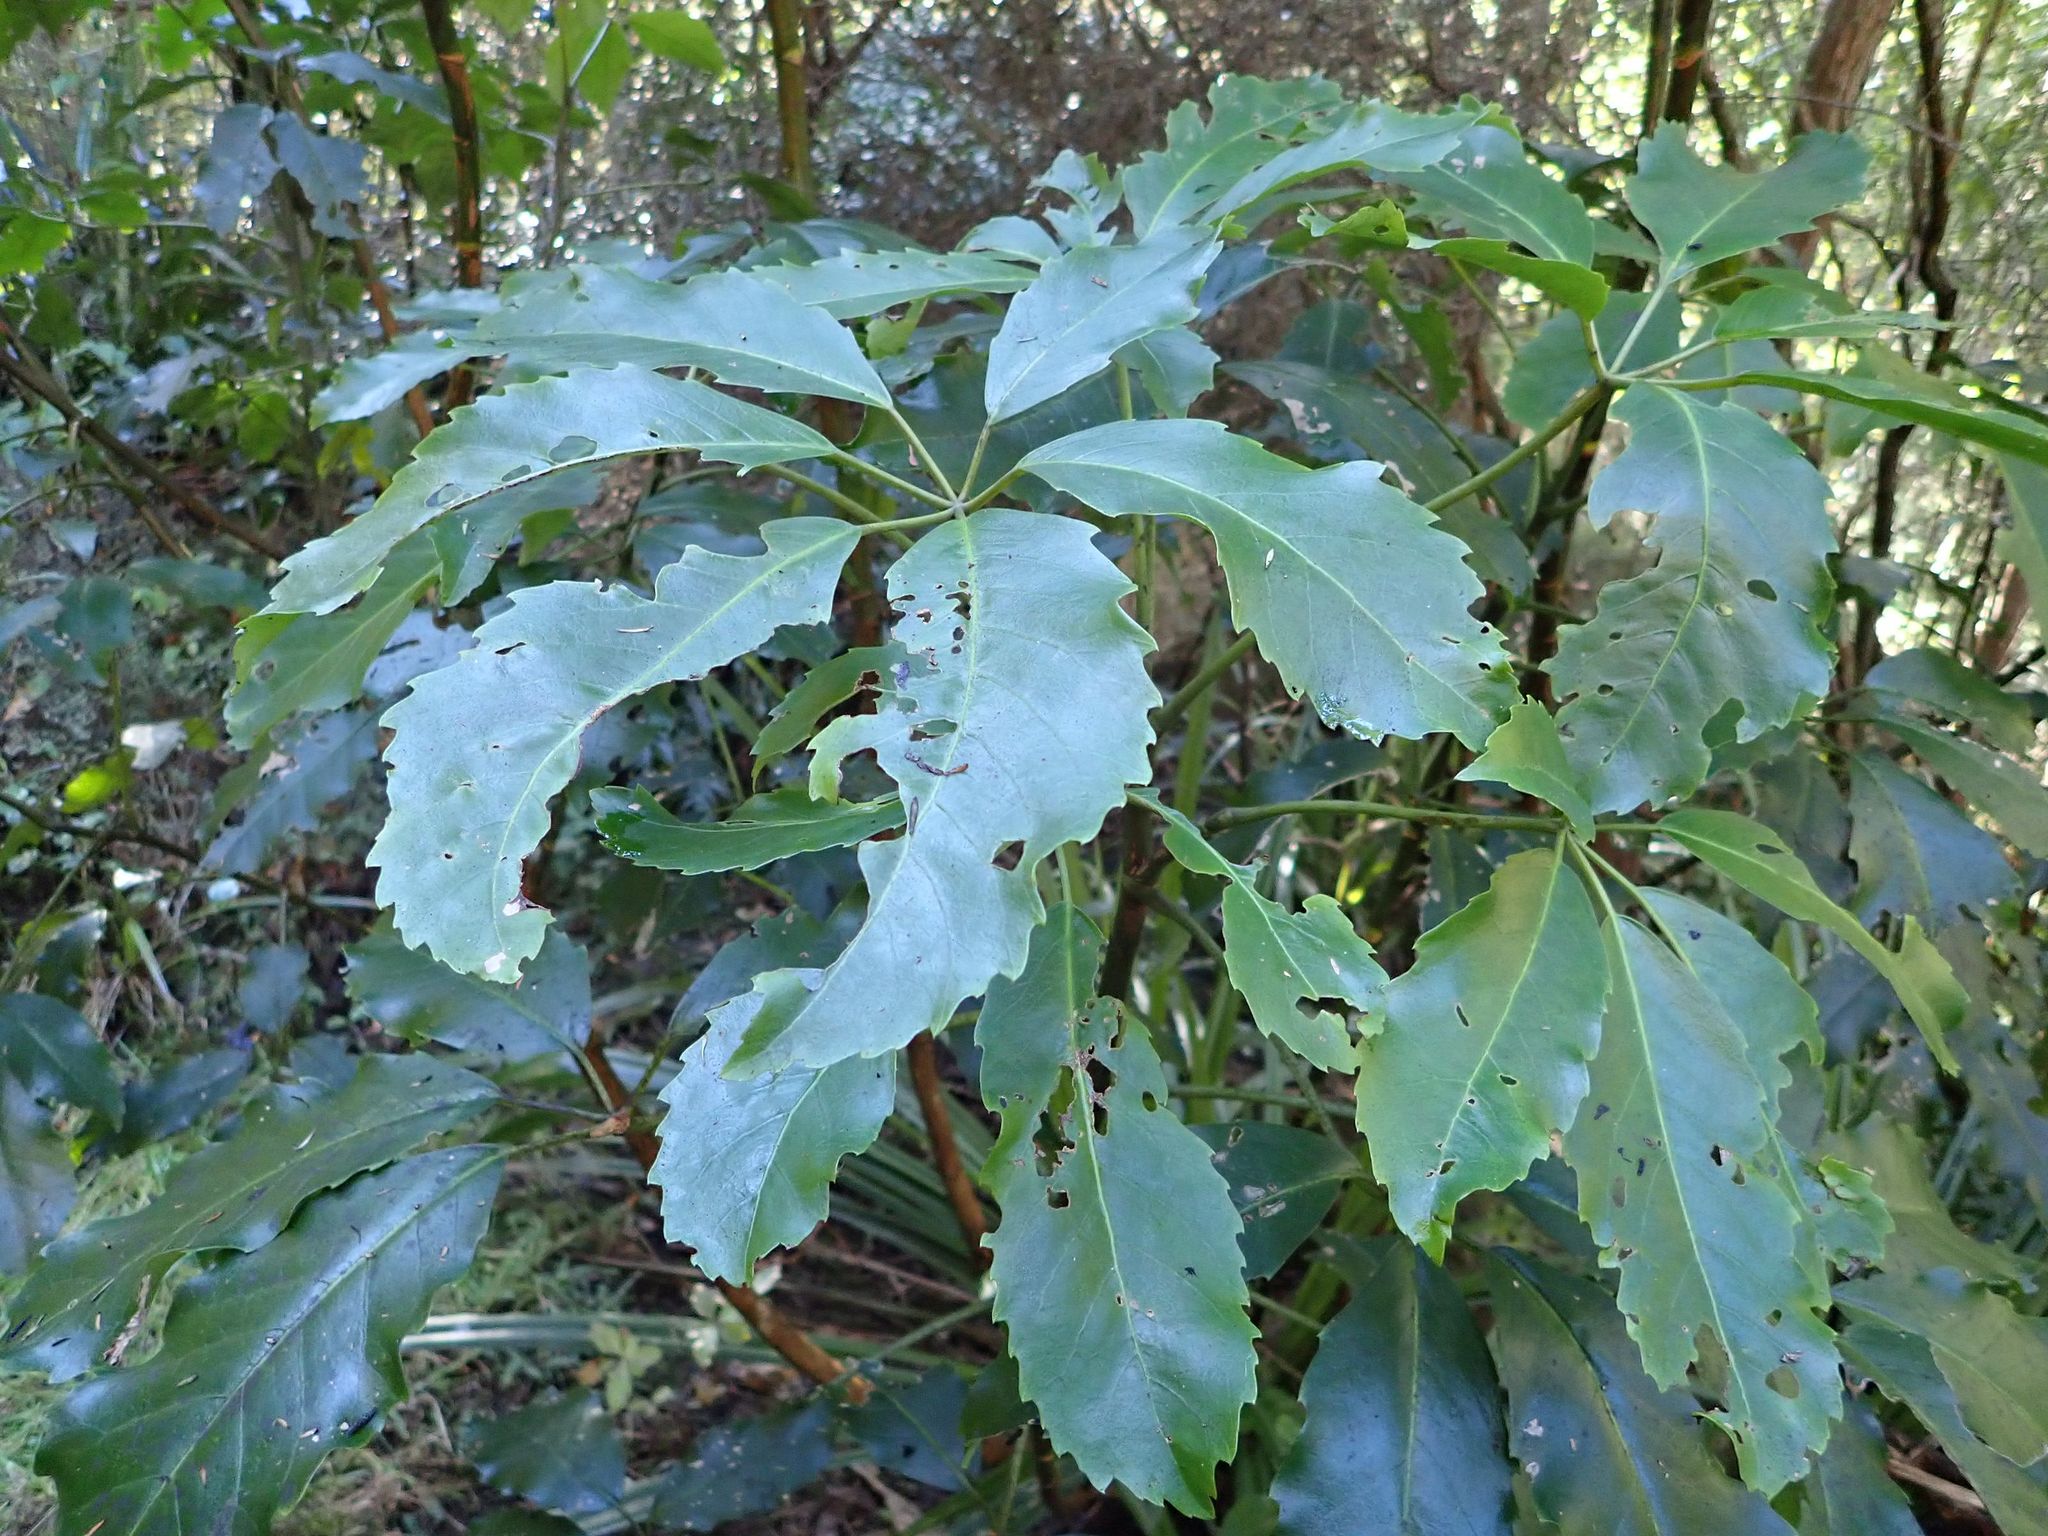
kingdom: Plantae
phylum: Tracheophyta
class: Magnoliopsida
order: Apiales
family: Araliaceae
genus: Neopanax
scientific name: Neopanax arboreus
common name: Five-fingers
